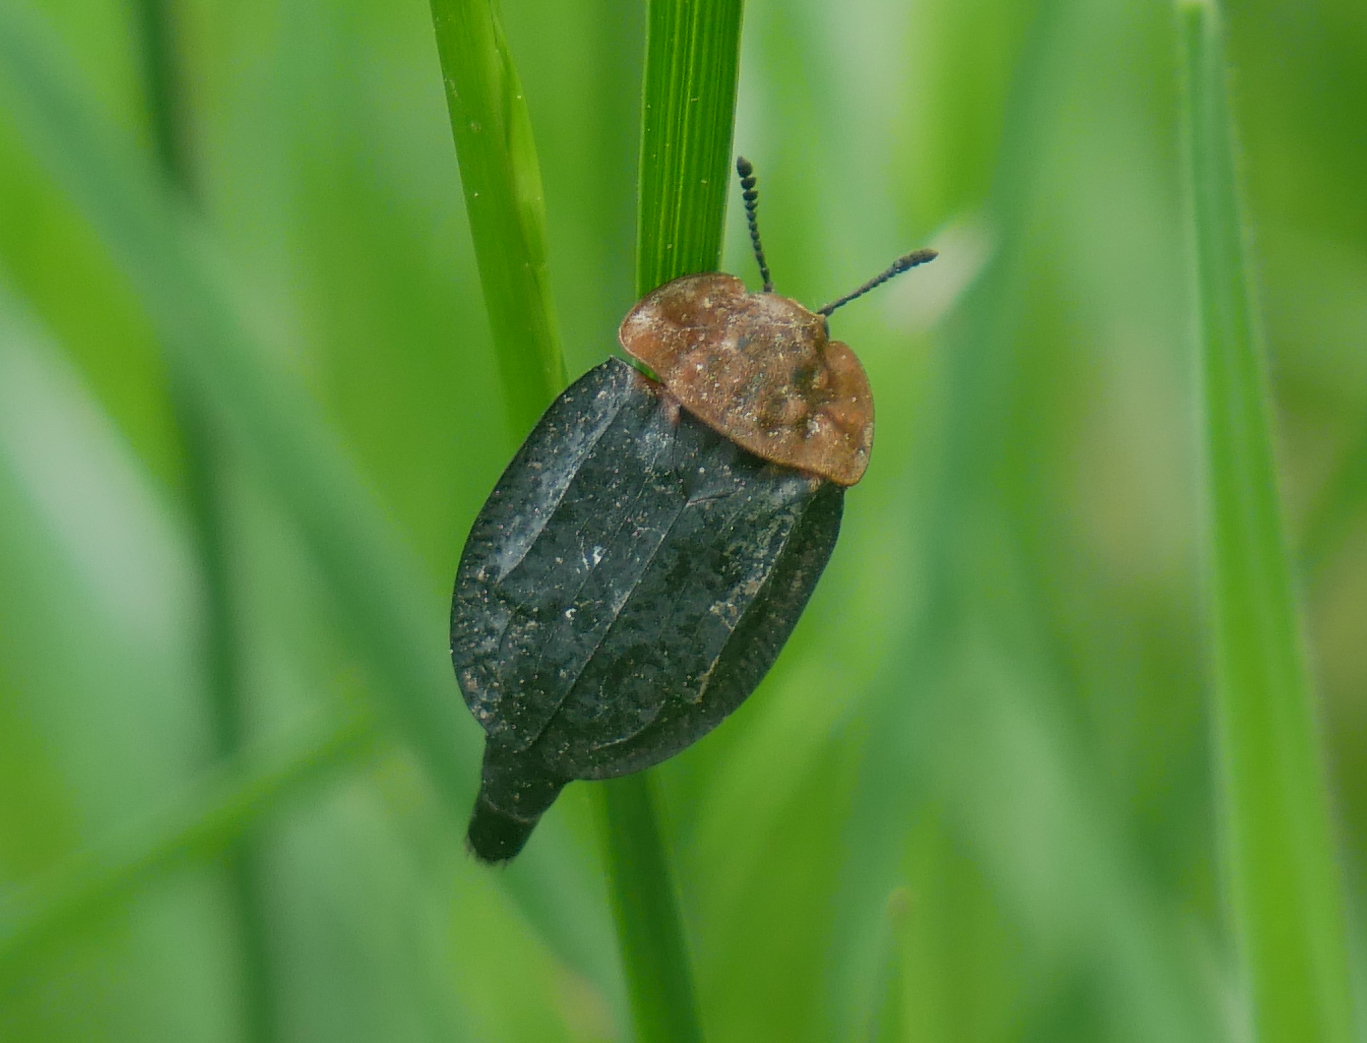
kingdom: Animalia
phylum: Arthropoda
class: Insecta
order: Coleoptera
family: Staphylinidae
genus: Oiceoptoma
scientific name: Oiceoptoma thoracicum
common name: Red-breasted carrion beetle
